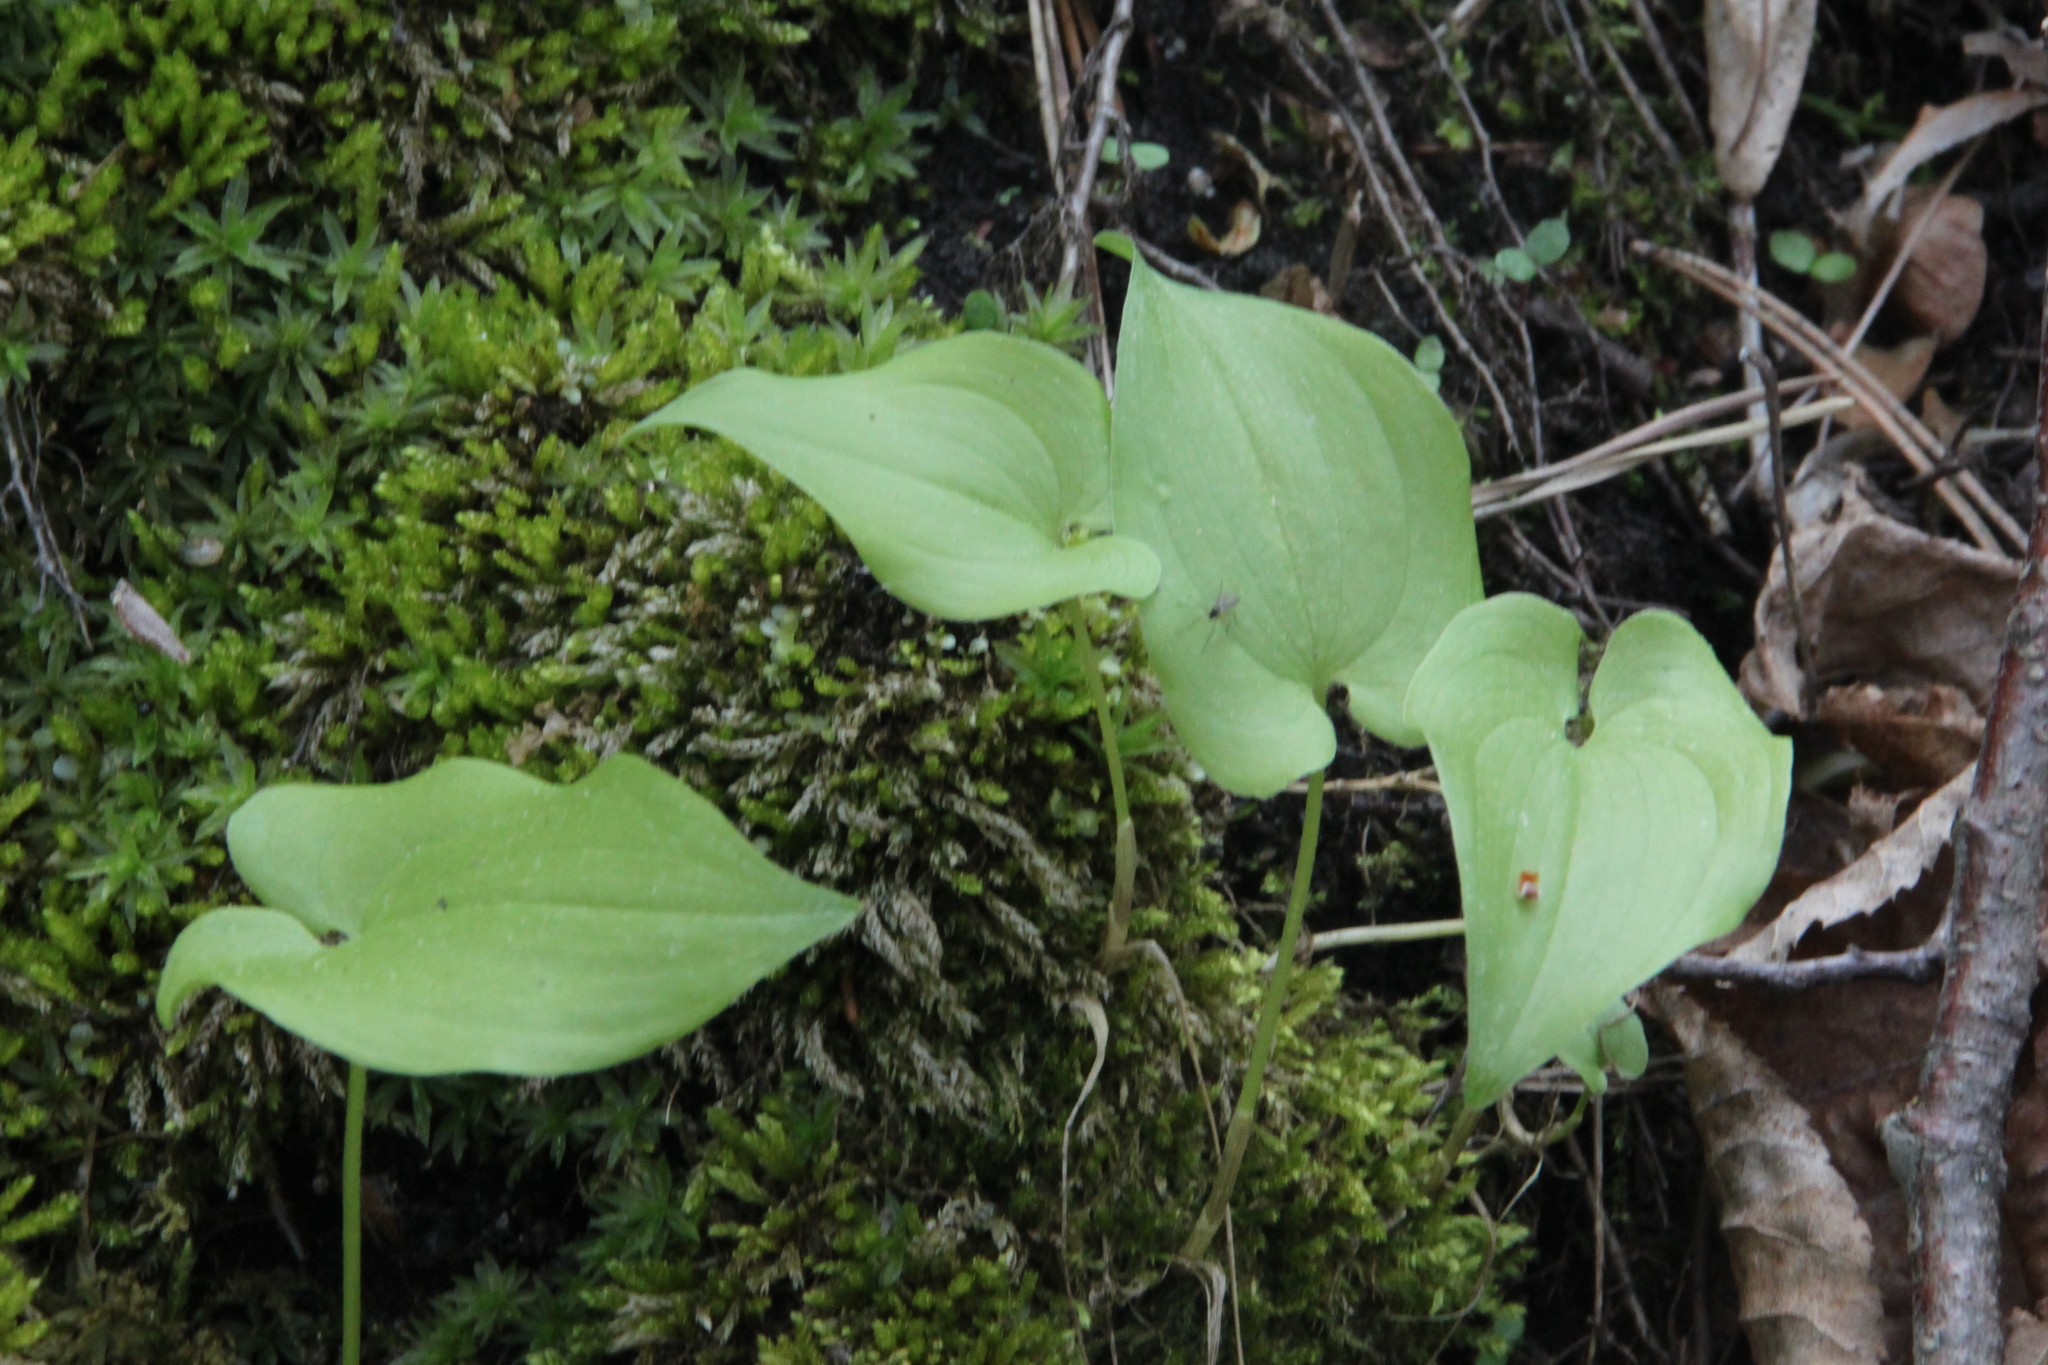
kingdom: Plantae
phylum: Tracheophyta
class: Liliopsida
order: Asparagales
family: Asparagaceae
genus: Maianthemum
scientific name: Maianthemum bifolium
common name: May lily
